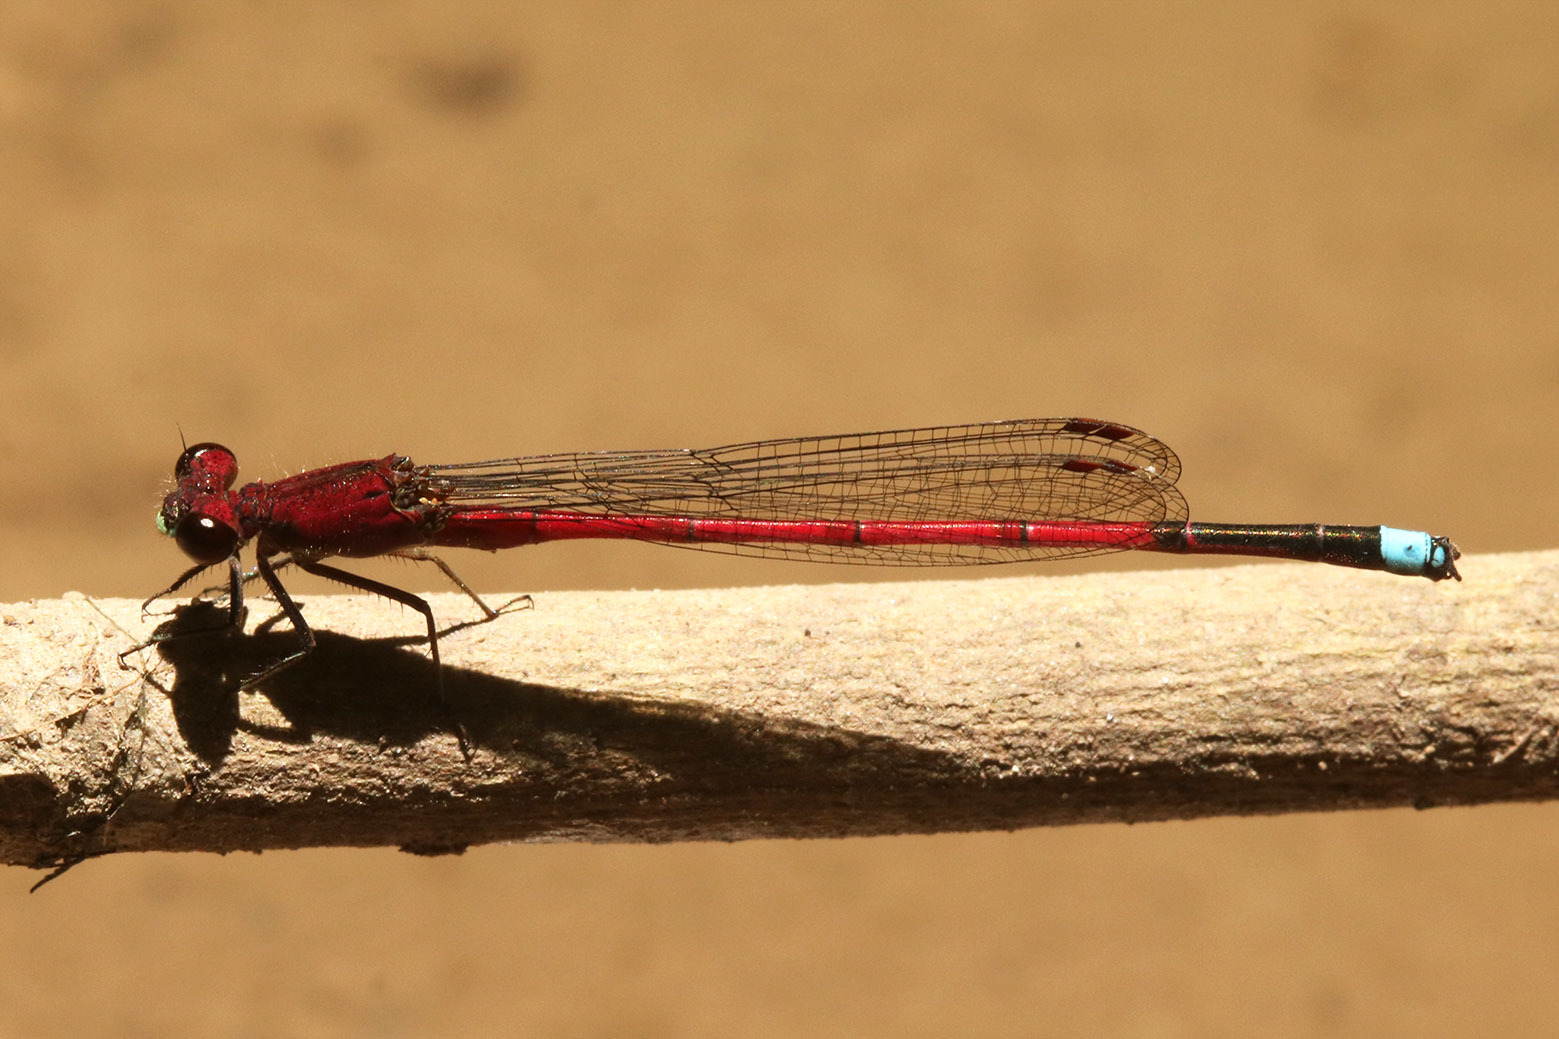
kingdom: Animalia
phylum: Arthropoda
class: Insecta
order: Odonata
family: Coenagrionidae
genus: Oxyagrion
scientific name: Oxyagrion terminale
